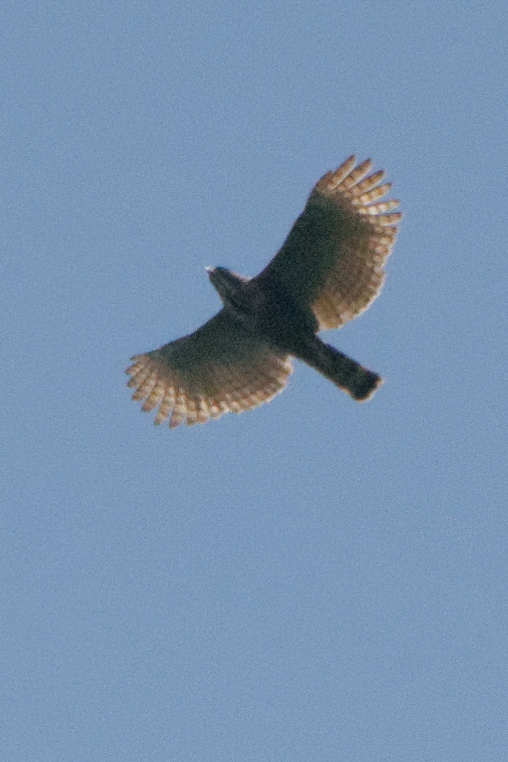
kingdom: Animalia
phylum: Chordata
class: Aves
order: Accipitriformes
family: Accipitridae
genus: Nisaetus
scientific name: Nisaetus lanceolatus
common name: Sulawesi hawk-eagle
